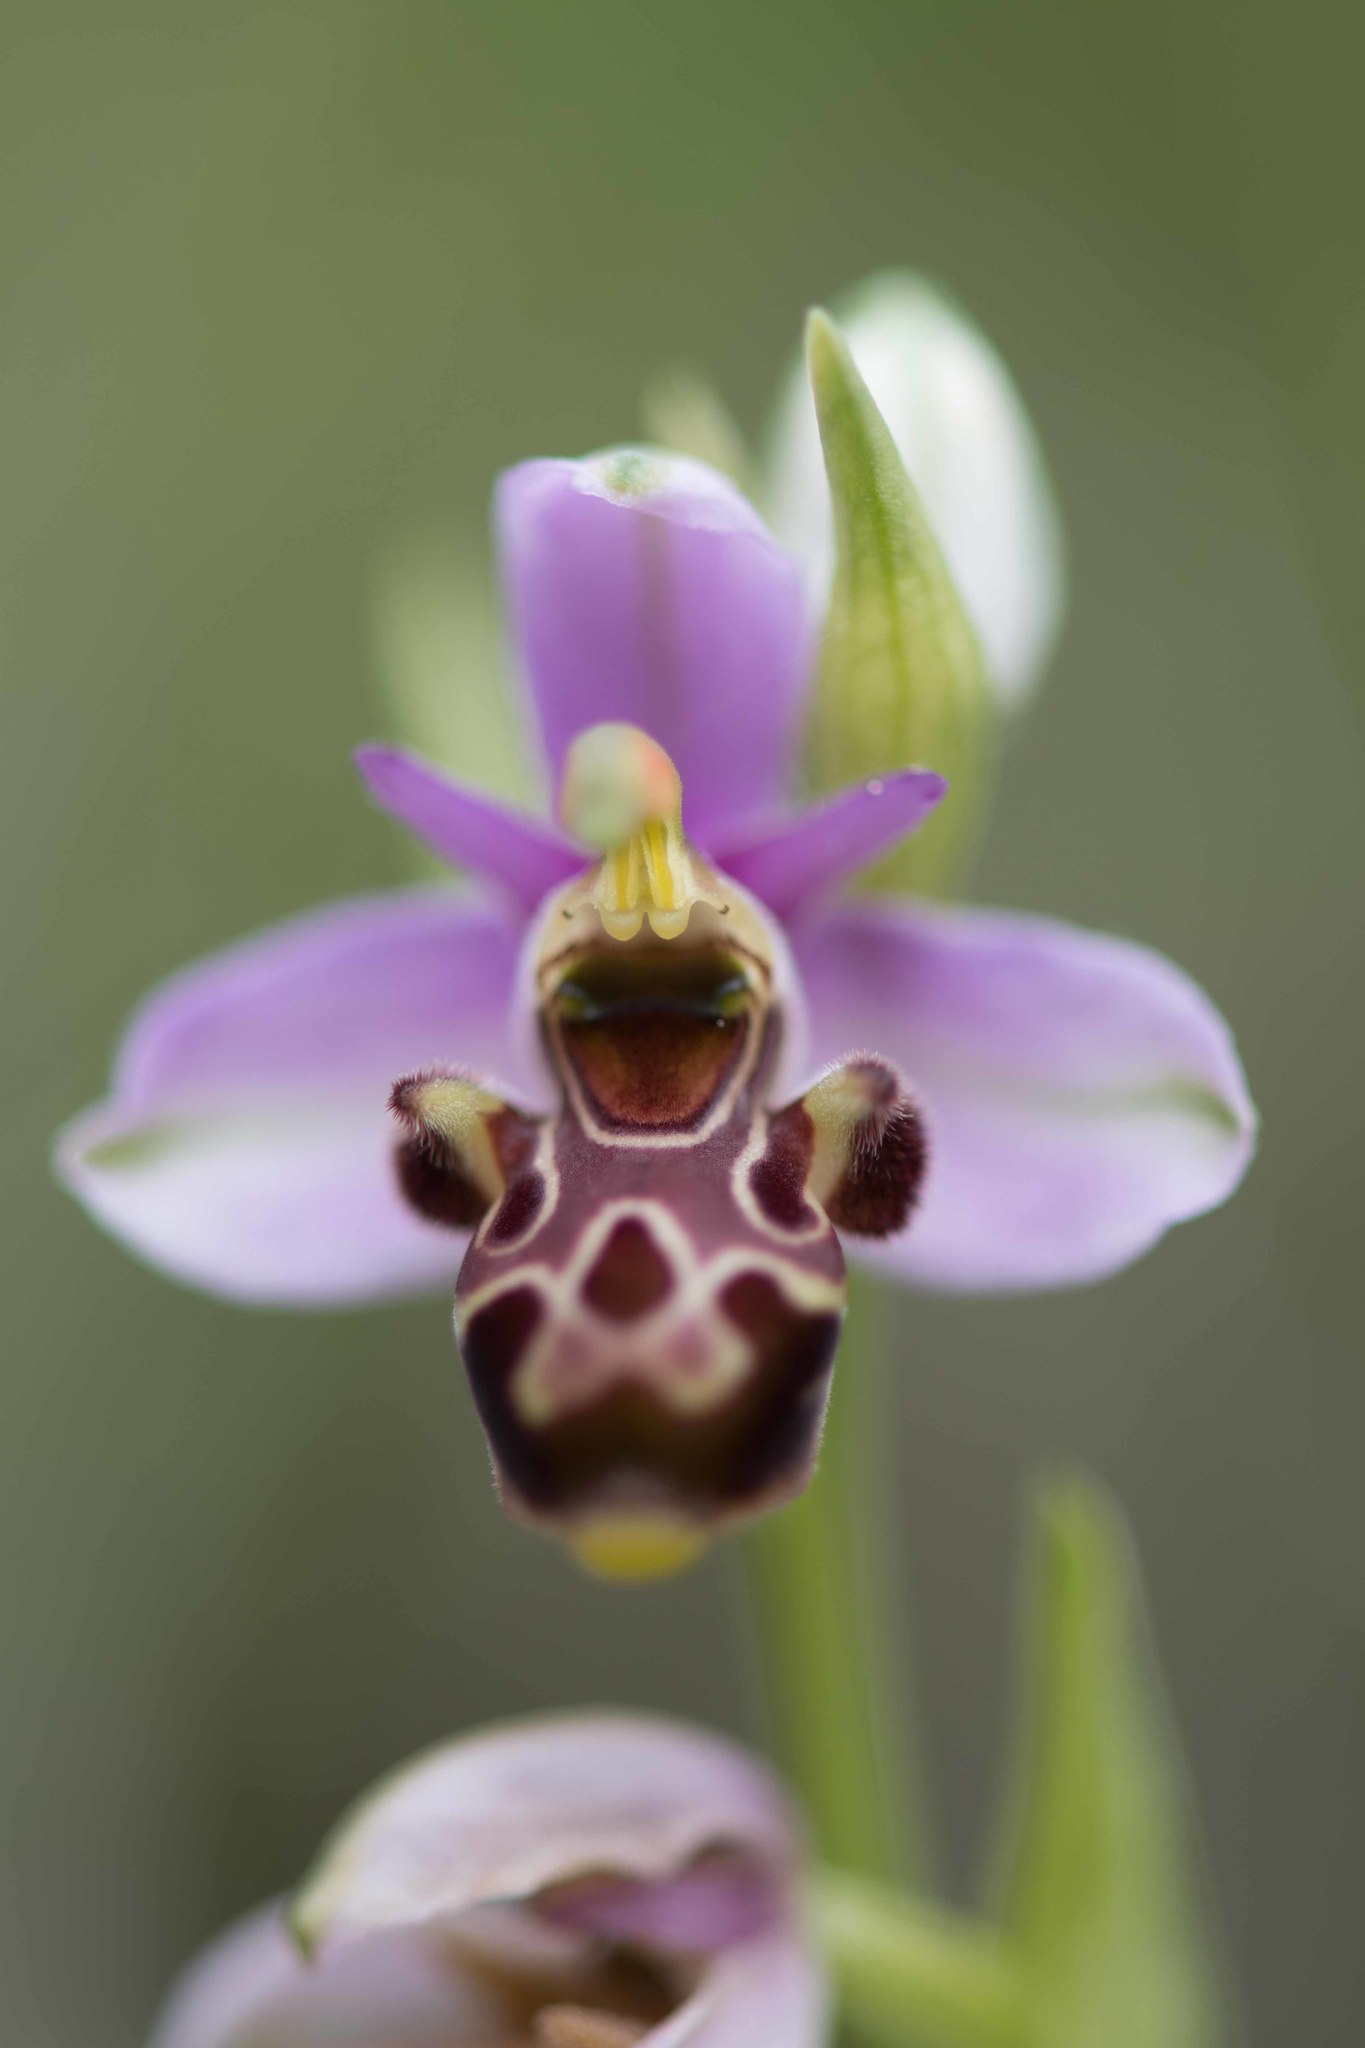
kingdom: Plantae
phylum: Tracheophyta
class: Liliopsida
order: Asparagales
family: Orchidaceae
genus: Ophrys
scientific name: Ophrys scolopax
